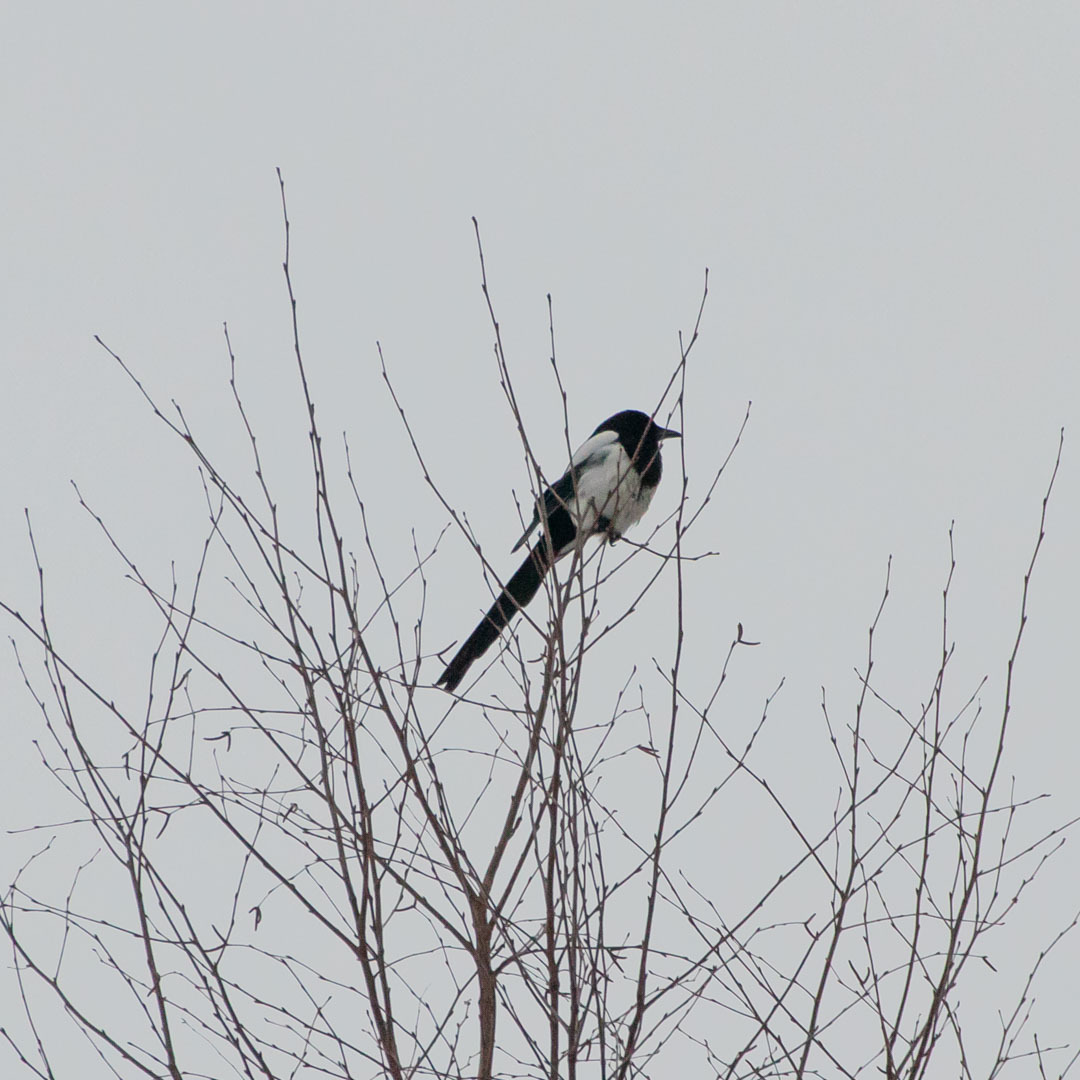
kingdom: Animalia
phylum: Chordata
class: Aves
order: Passeriformes
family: Corvidae
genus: Pica
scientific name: Pica pica
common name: Eurasian magpie
